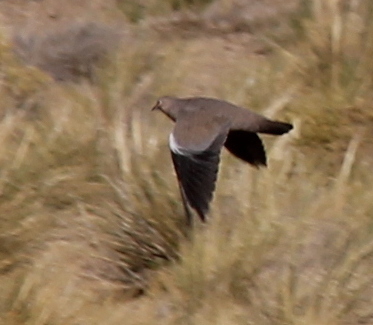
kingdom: Animalia
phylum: Chordata
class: Aves
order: Columbiformes
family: Columbidae
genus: Metriopelia
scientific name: Metriopelia melanoptera
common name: Black-winged ground dove
